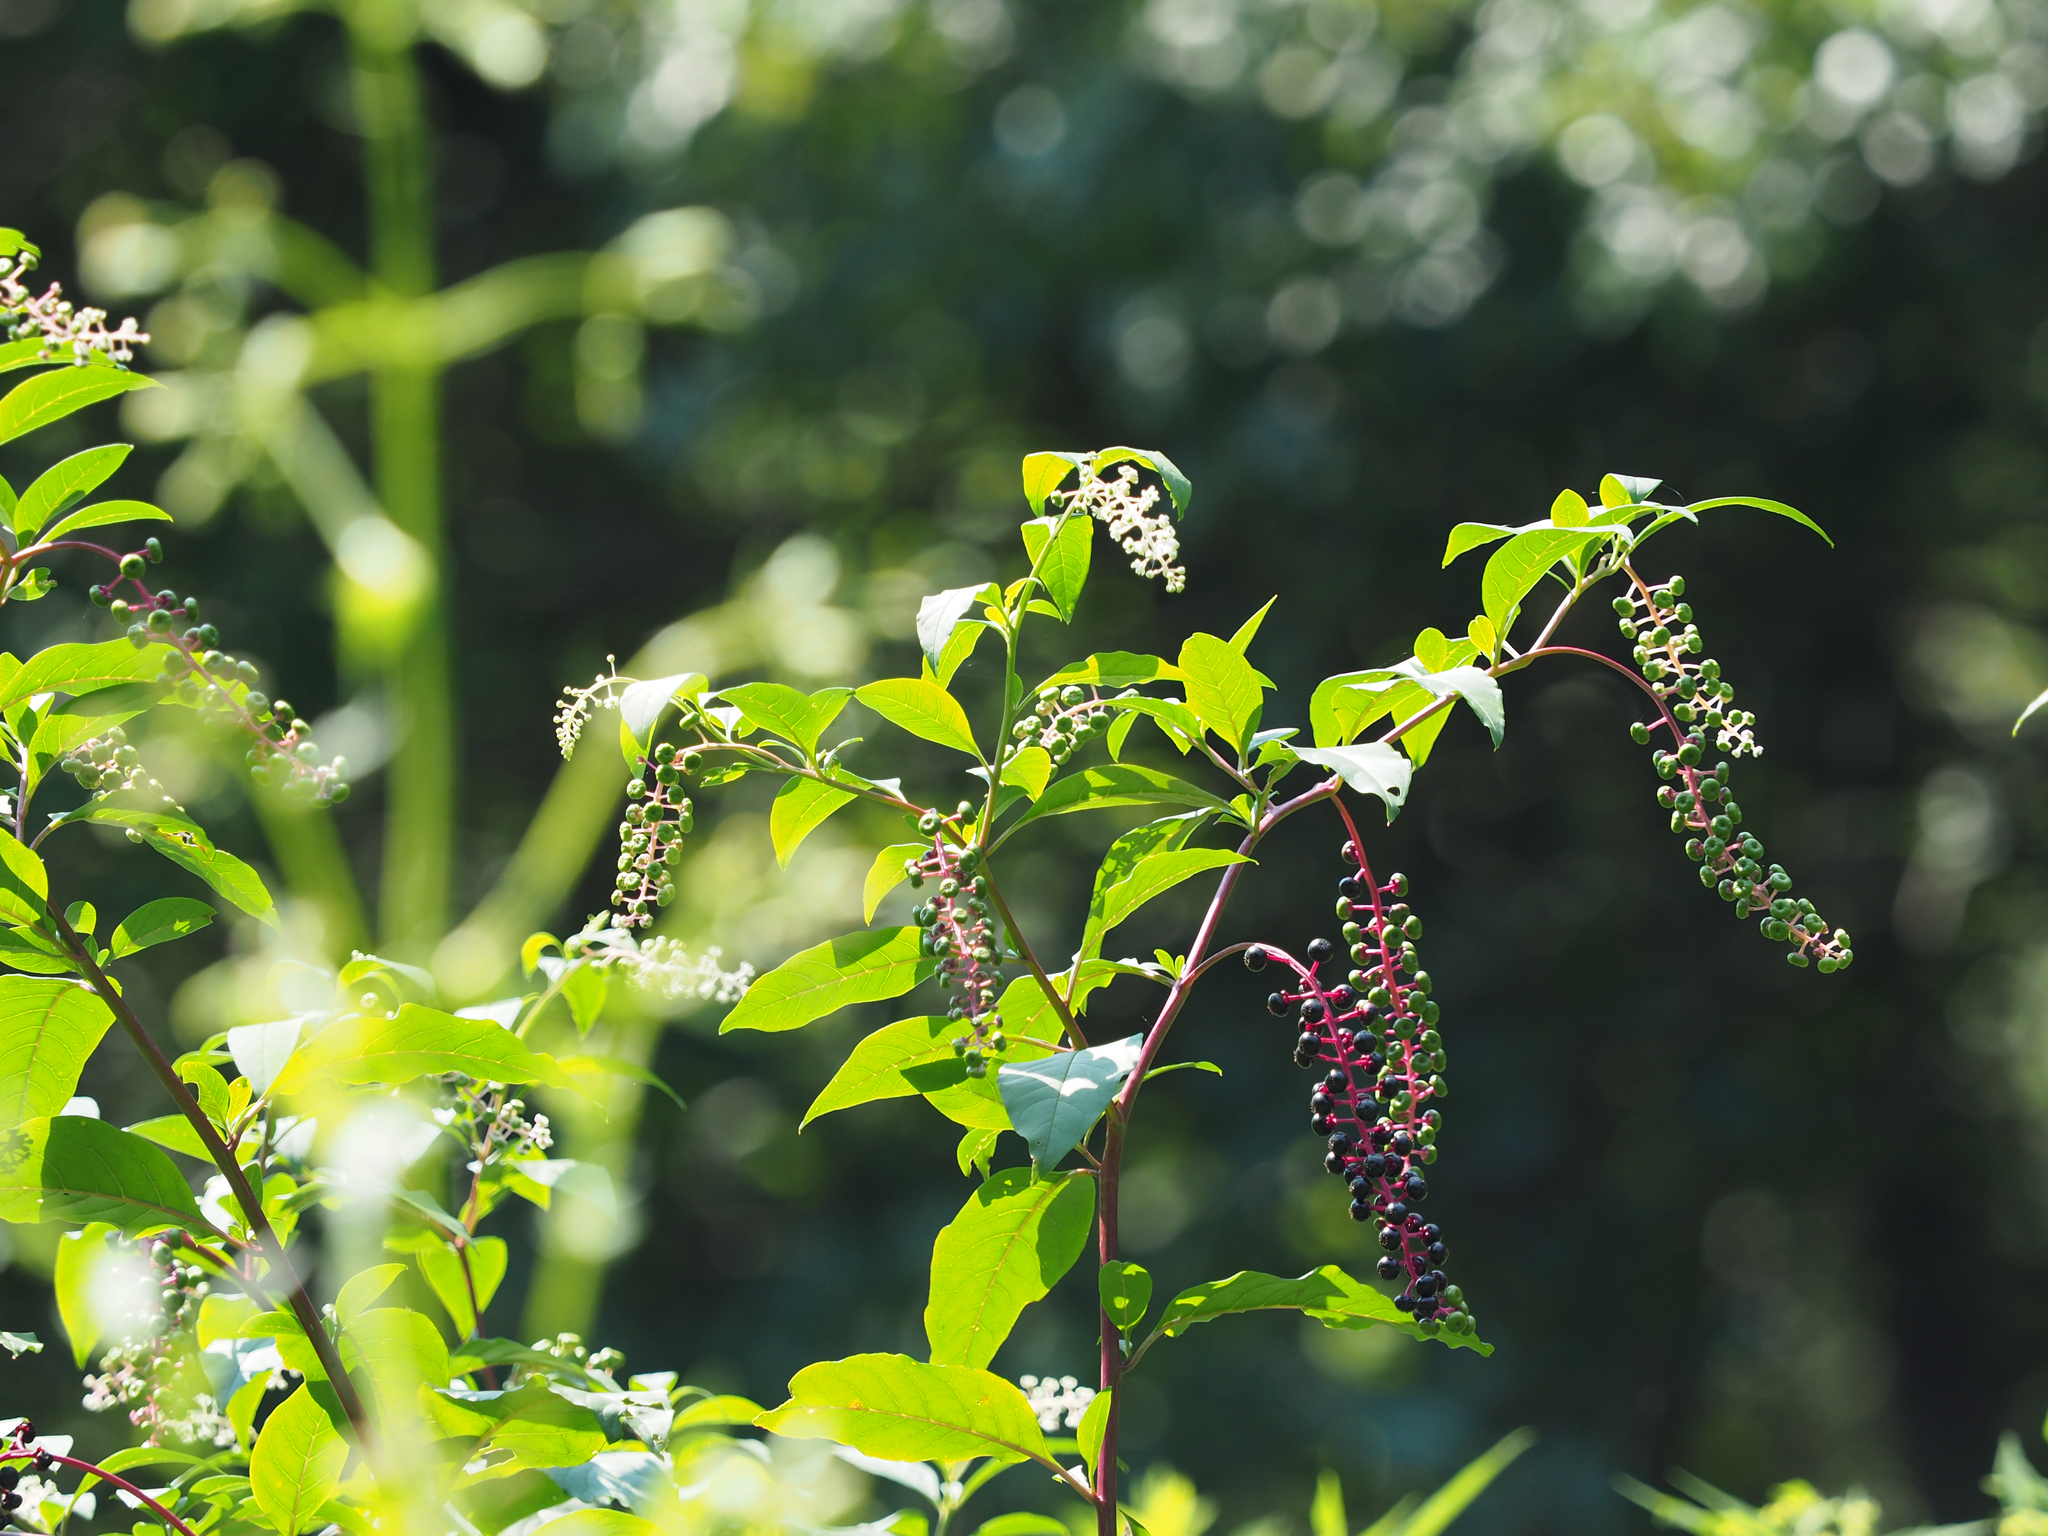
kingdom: Plantae
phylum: Tracheophyta
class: Magnoliopsida
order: Caryophyllales
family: Phytolaccaceae
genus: Phytolacca
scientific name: Phytolacca americana
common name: American pokeweed
